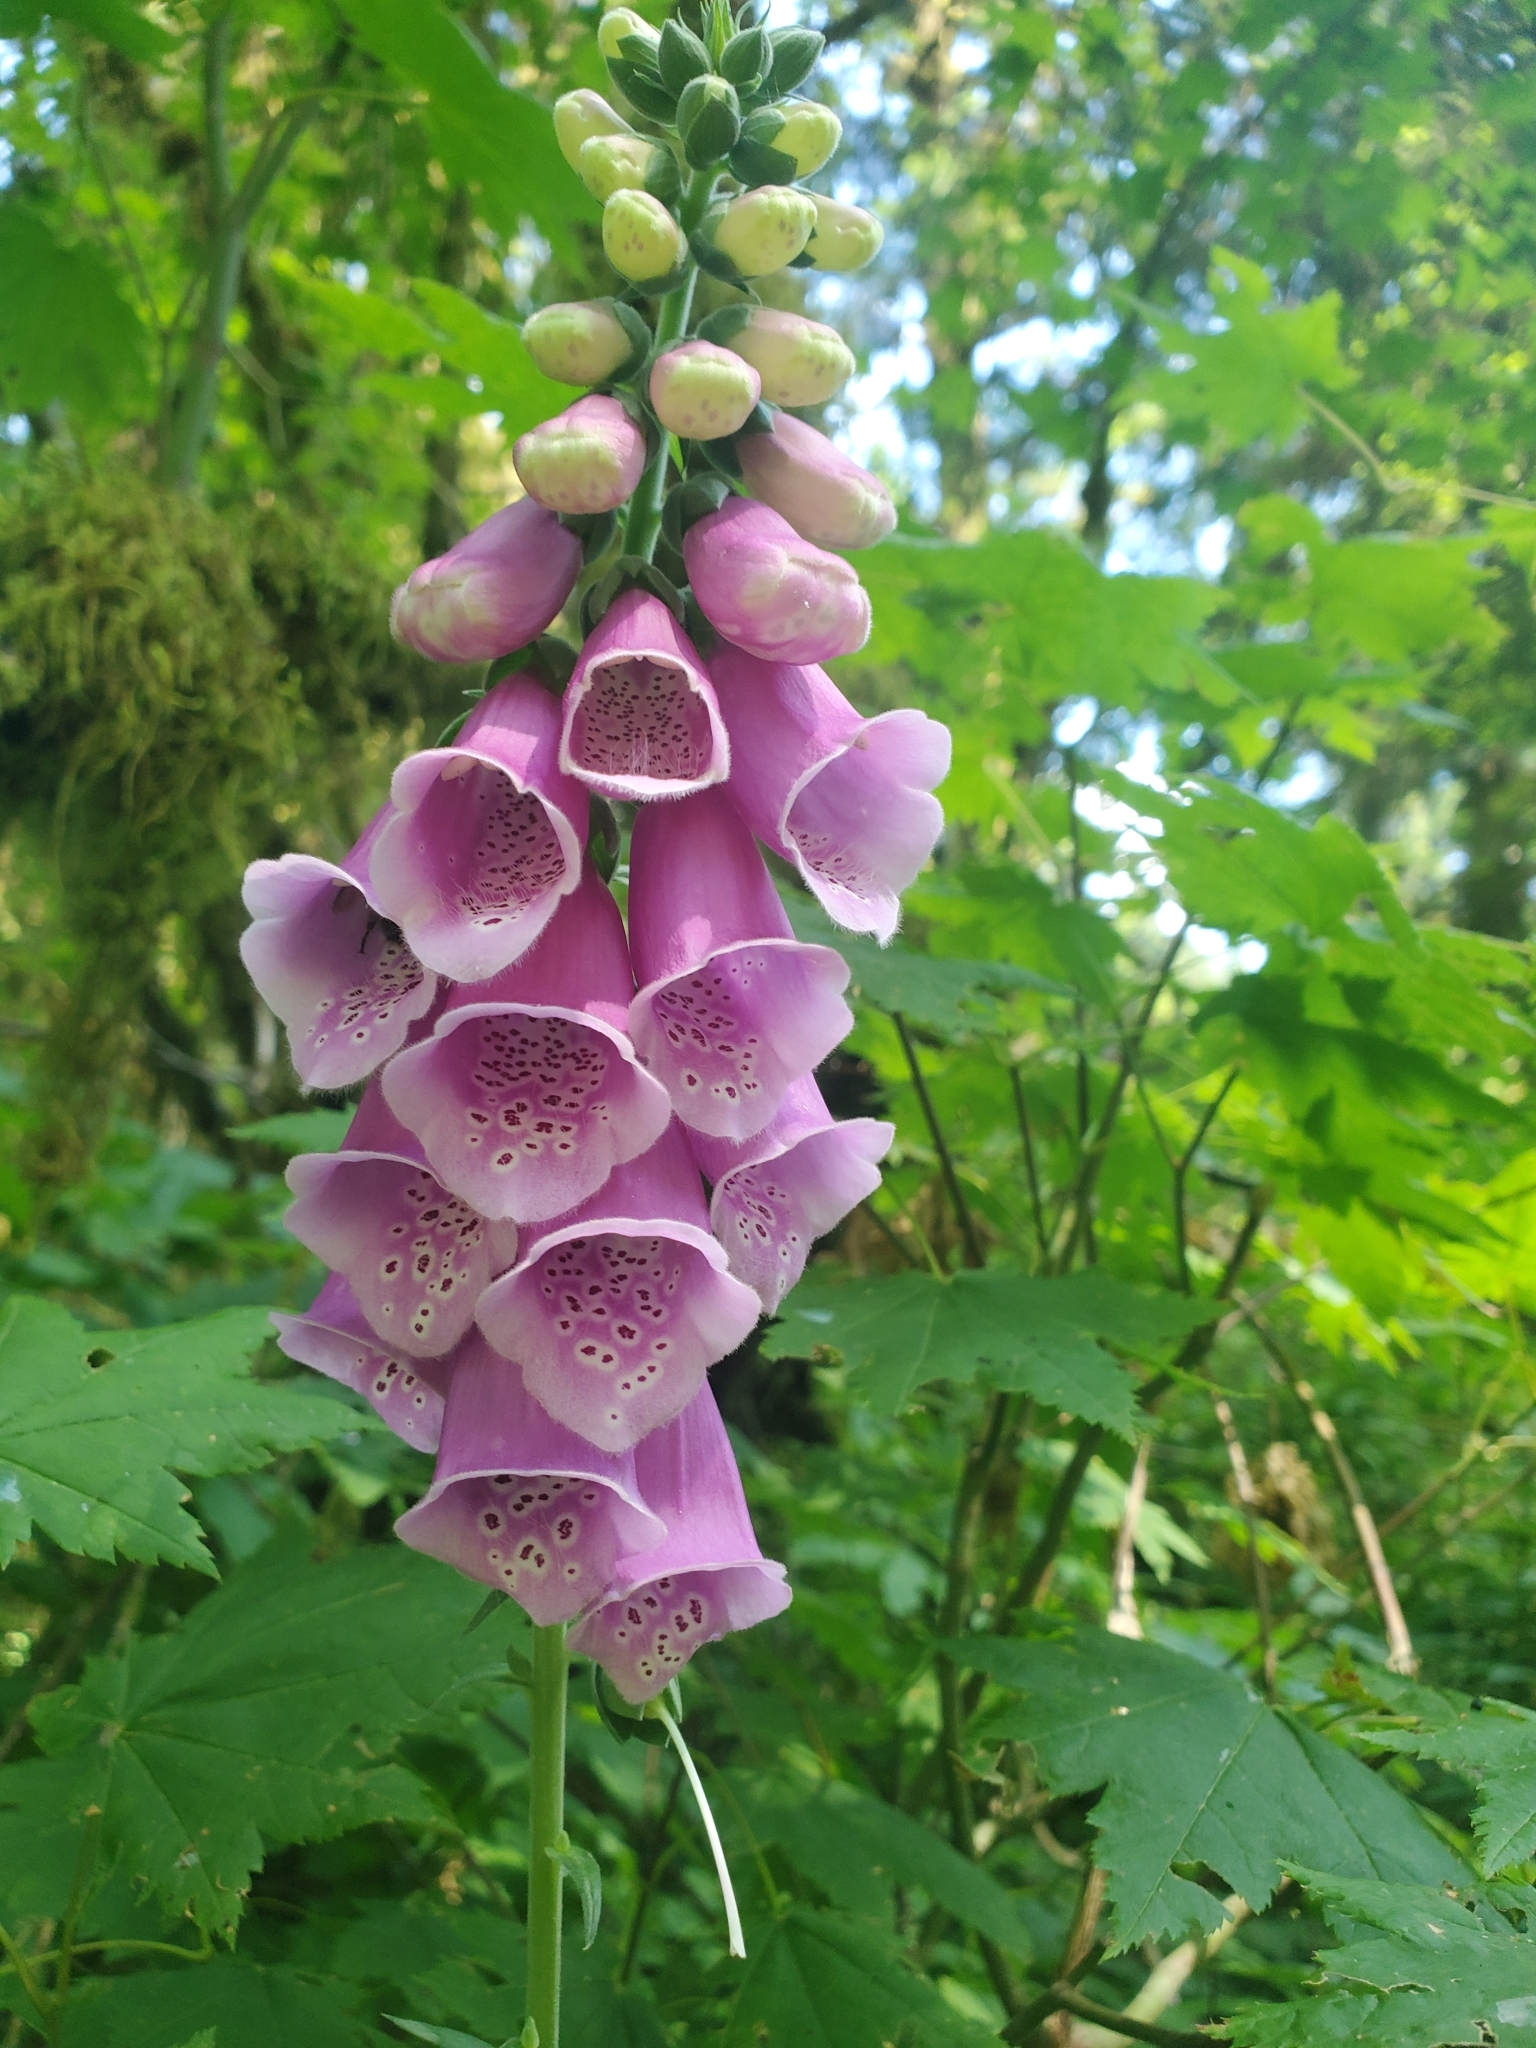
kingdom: Plantae
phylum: Tracheophyta
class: Magnoliopsida
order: Lamiales
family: Plantaginaceae
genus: Digitalis
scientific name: Digitalis purpurea
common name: Foxglove
